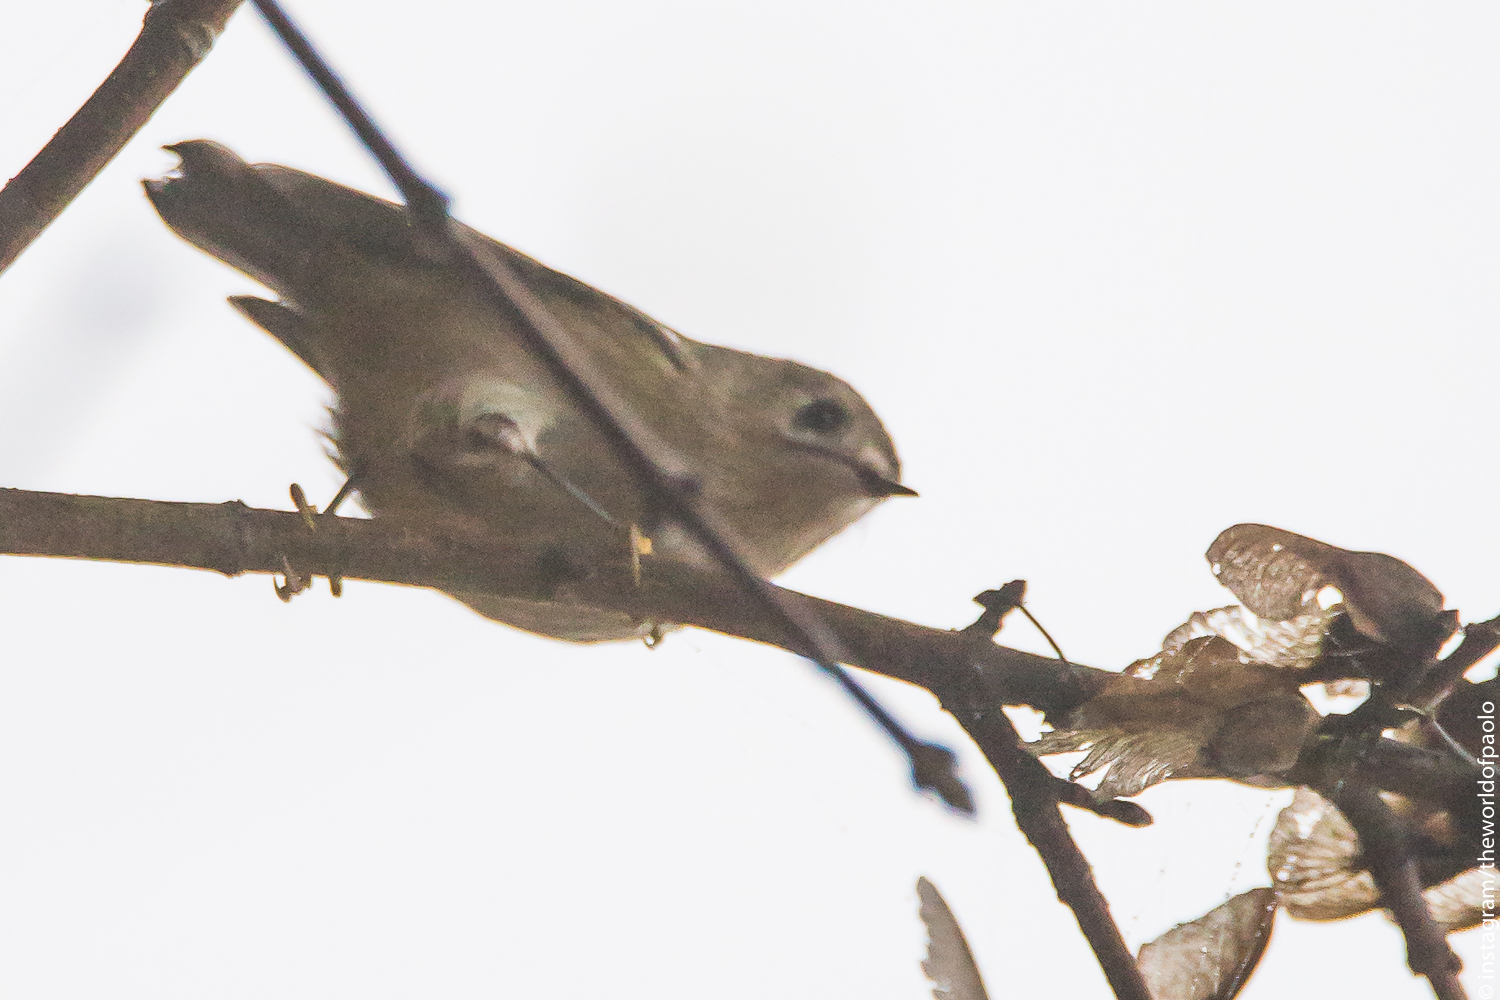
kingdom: Animalia
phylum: Chordata
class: Aves
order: Passeriformes
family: Regulidae
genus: Regulus
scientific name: Regulus regulus
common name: Goldcrest
